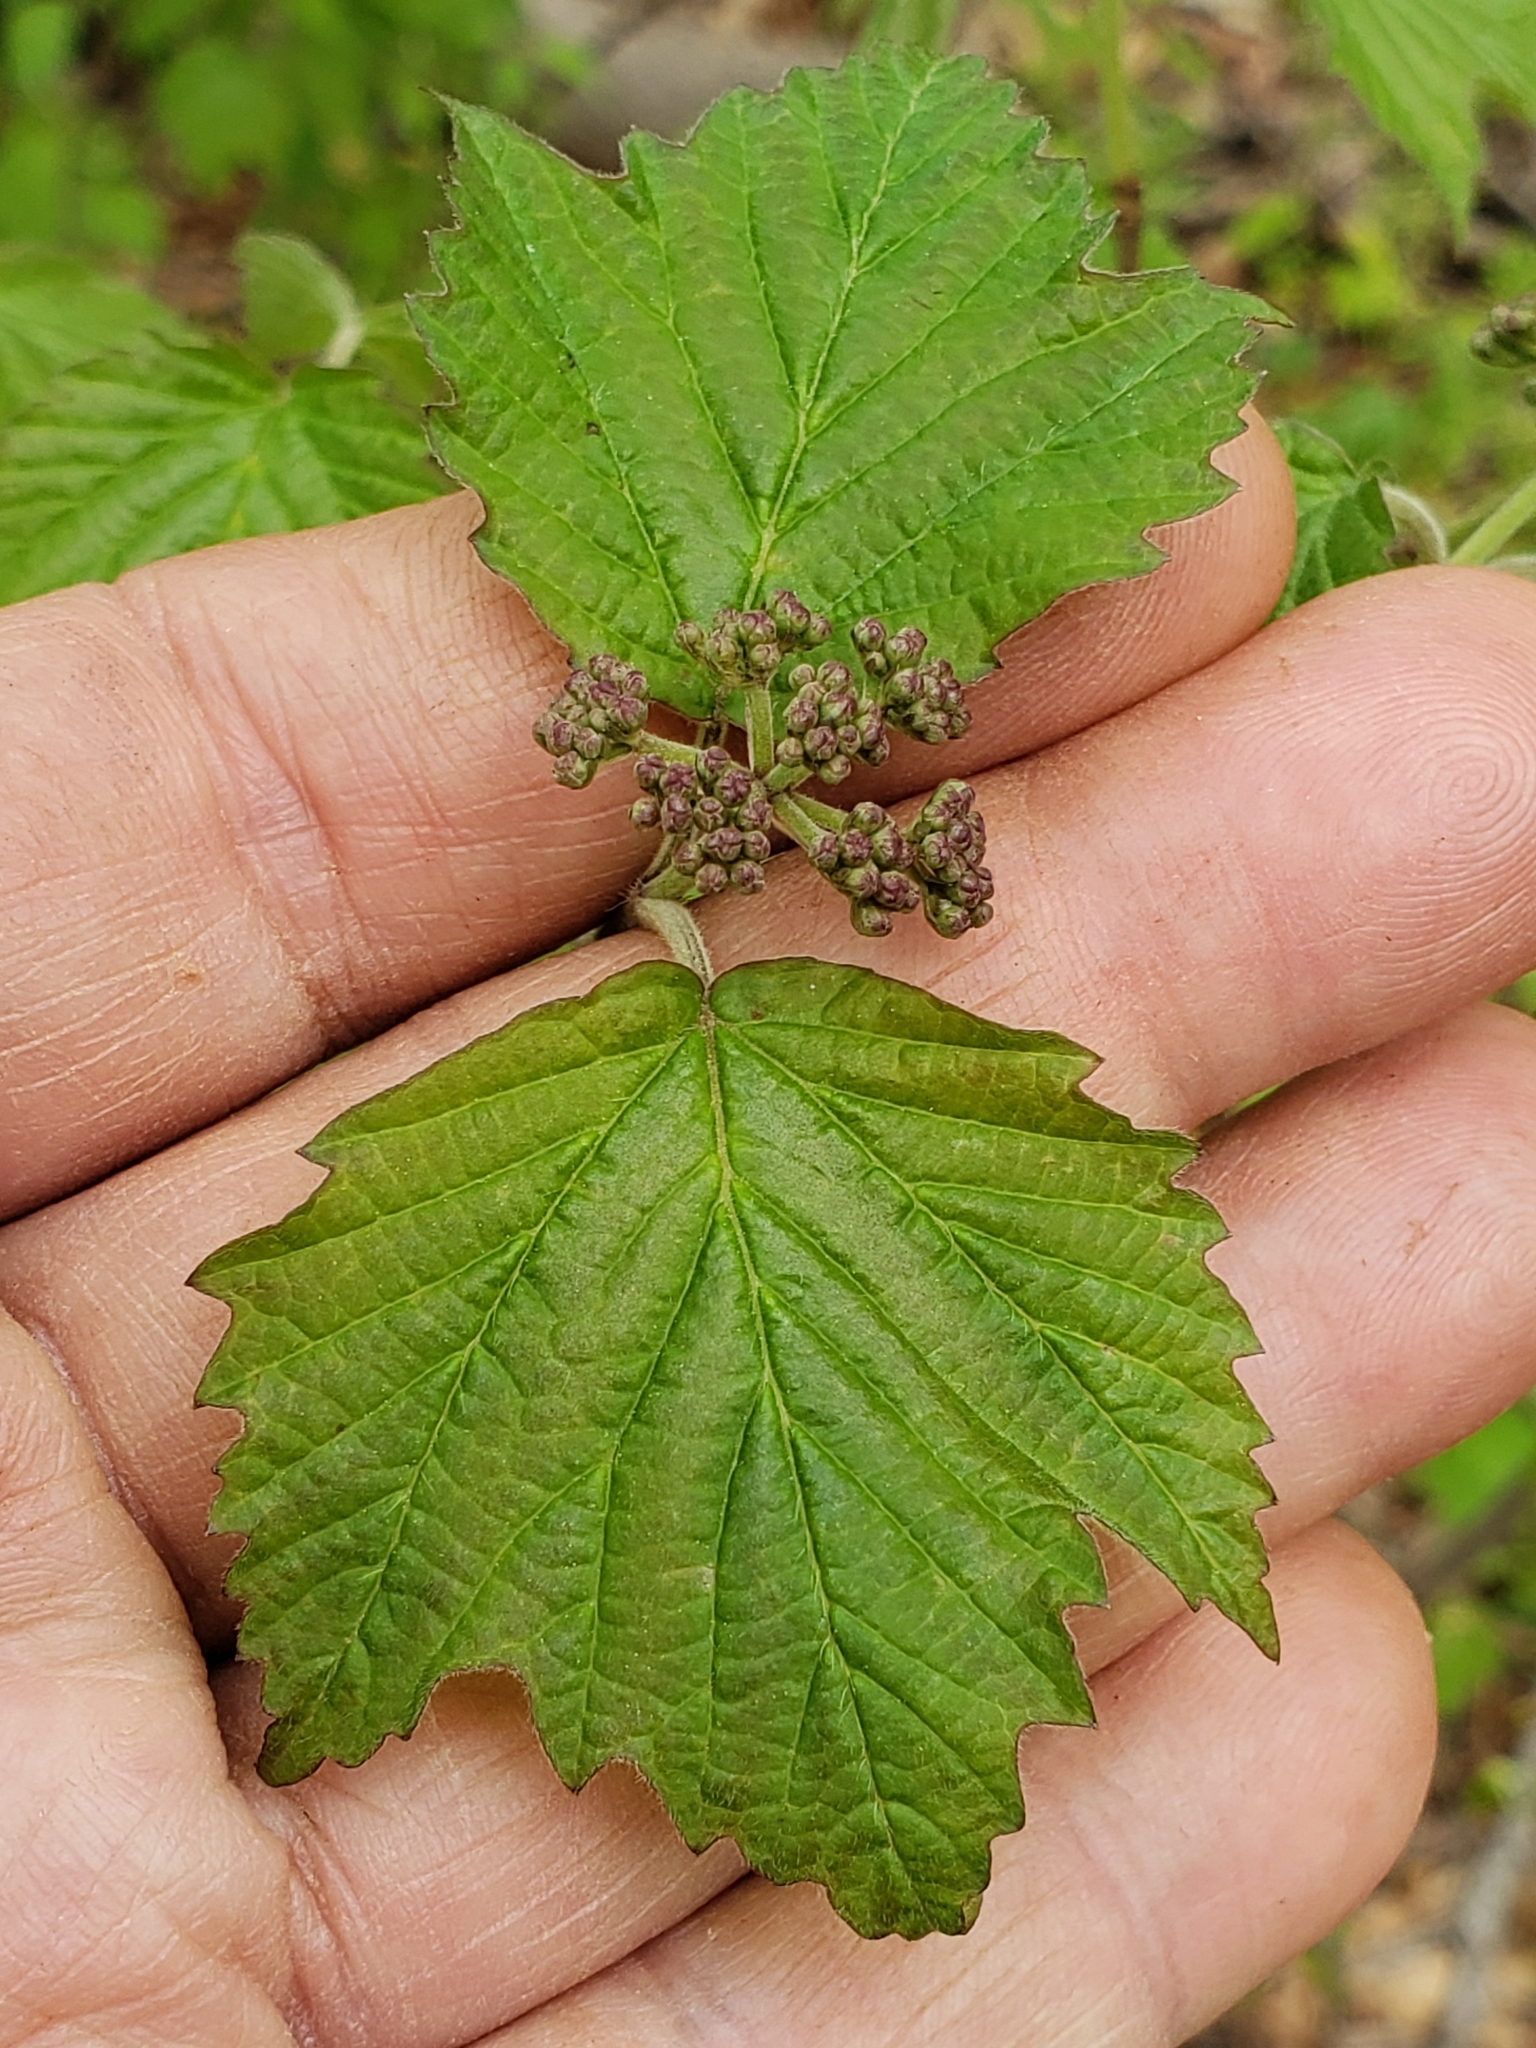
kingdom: Plantae
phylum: Tracheophyta
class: Magnoliopsida
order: Dipsacales
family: Viburnaceae
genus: Viburnum
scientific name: Viburnum acerifolium
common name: Dockmackie
